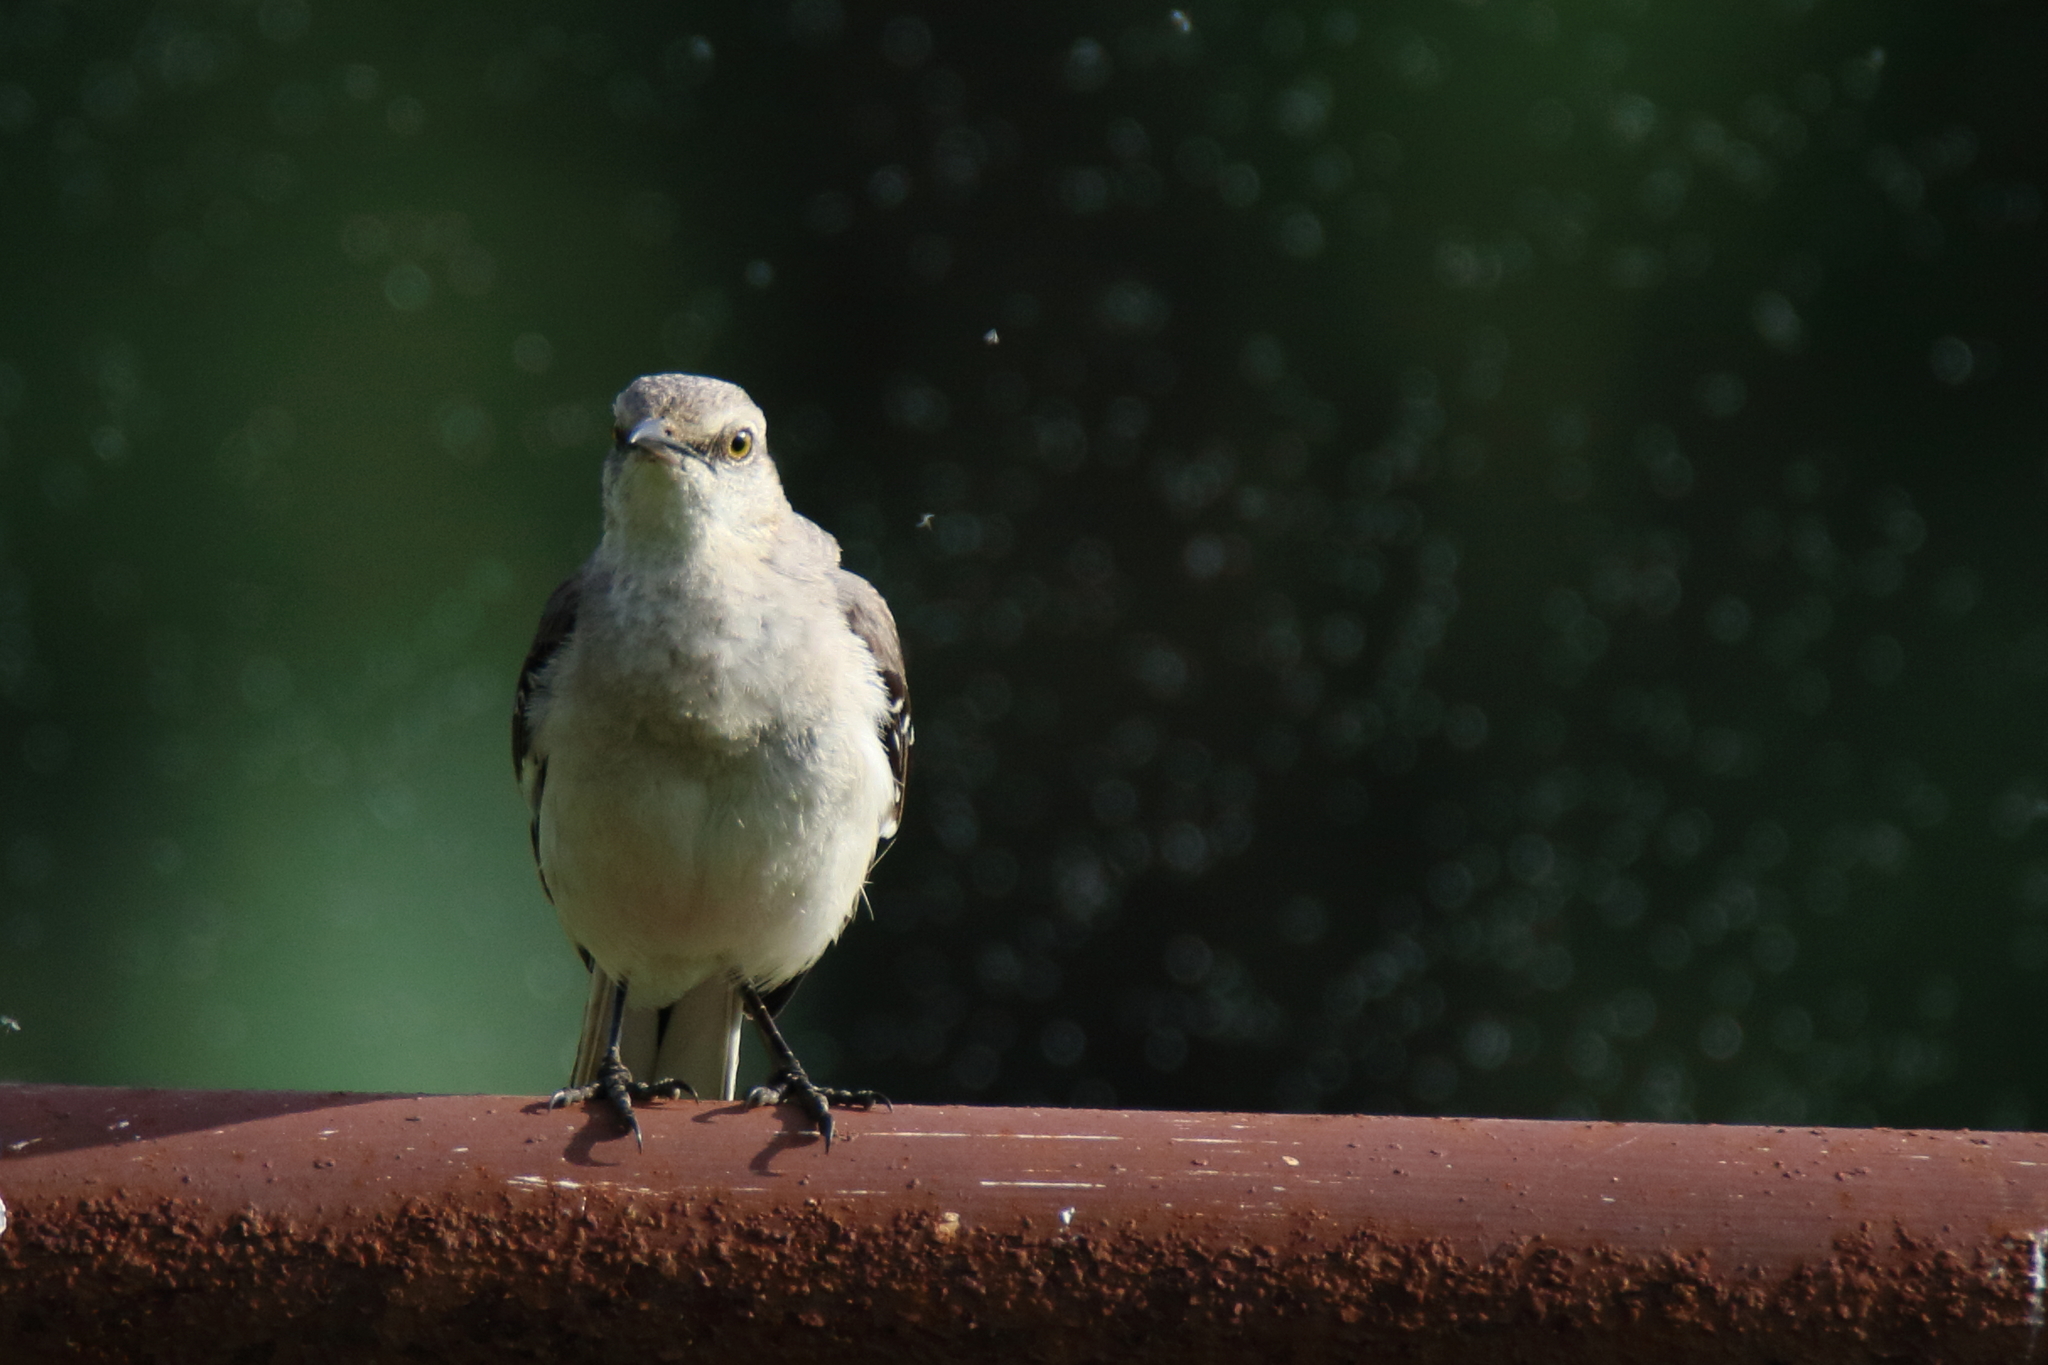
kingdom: Animalia
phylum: Chordata
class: Aves
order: Passeriformes
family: Mimidae
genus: Mimus
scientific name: Mimus polyglottos
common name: Northern mockingbird
